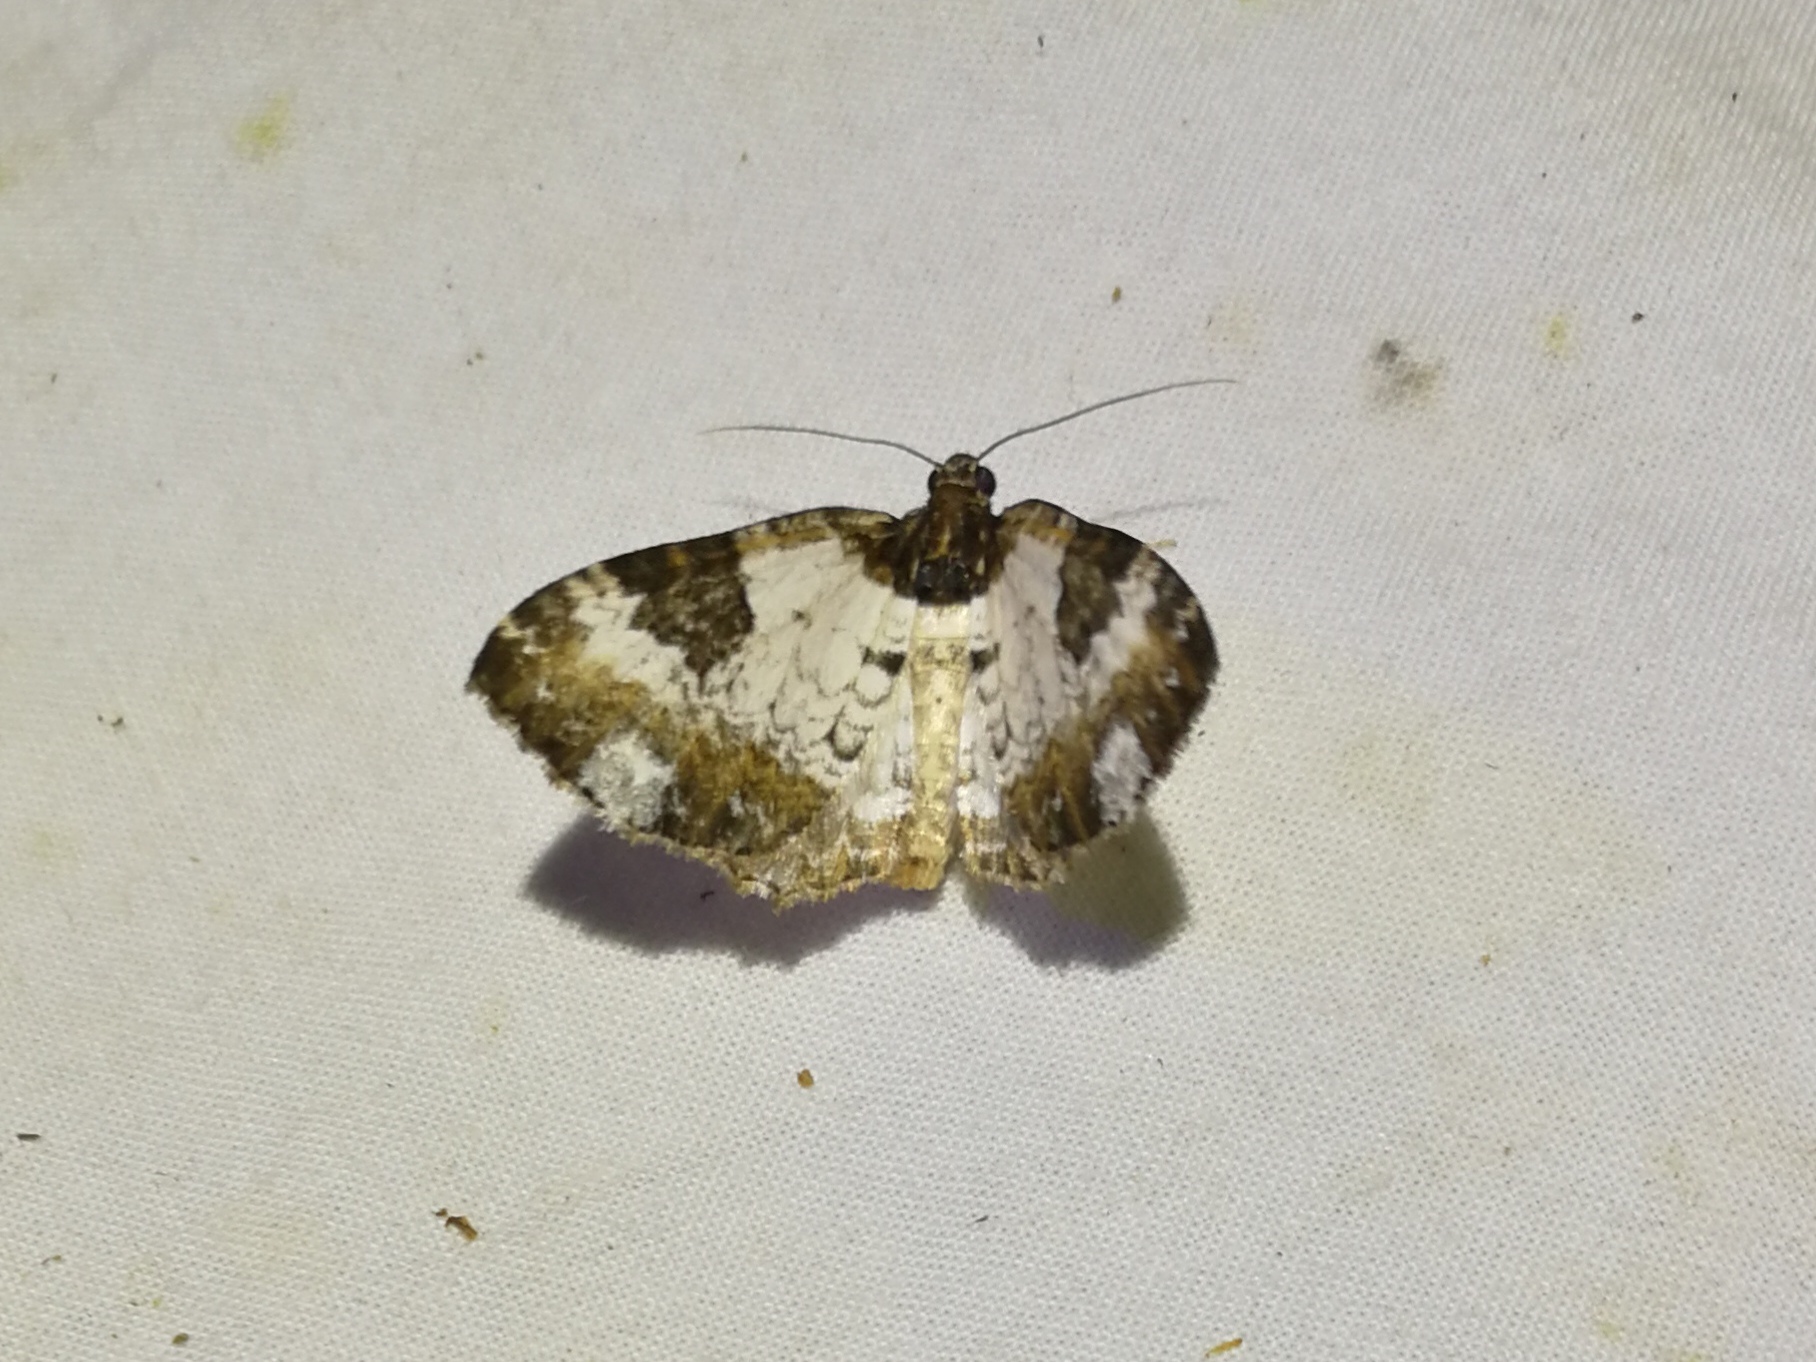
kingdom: Animalia
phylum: Arthropoda
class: Insecta
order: Lepidoptera
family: Geometridae
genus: Melanthia
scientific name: Melanthia procellata
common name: Pretty chalk carpet
